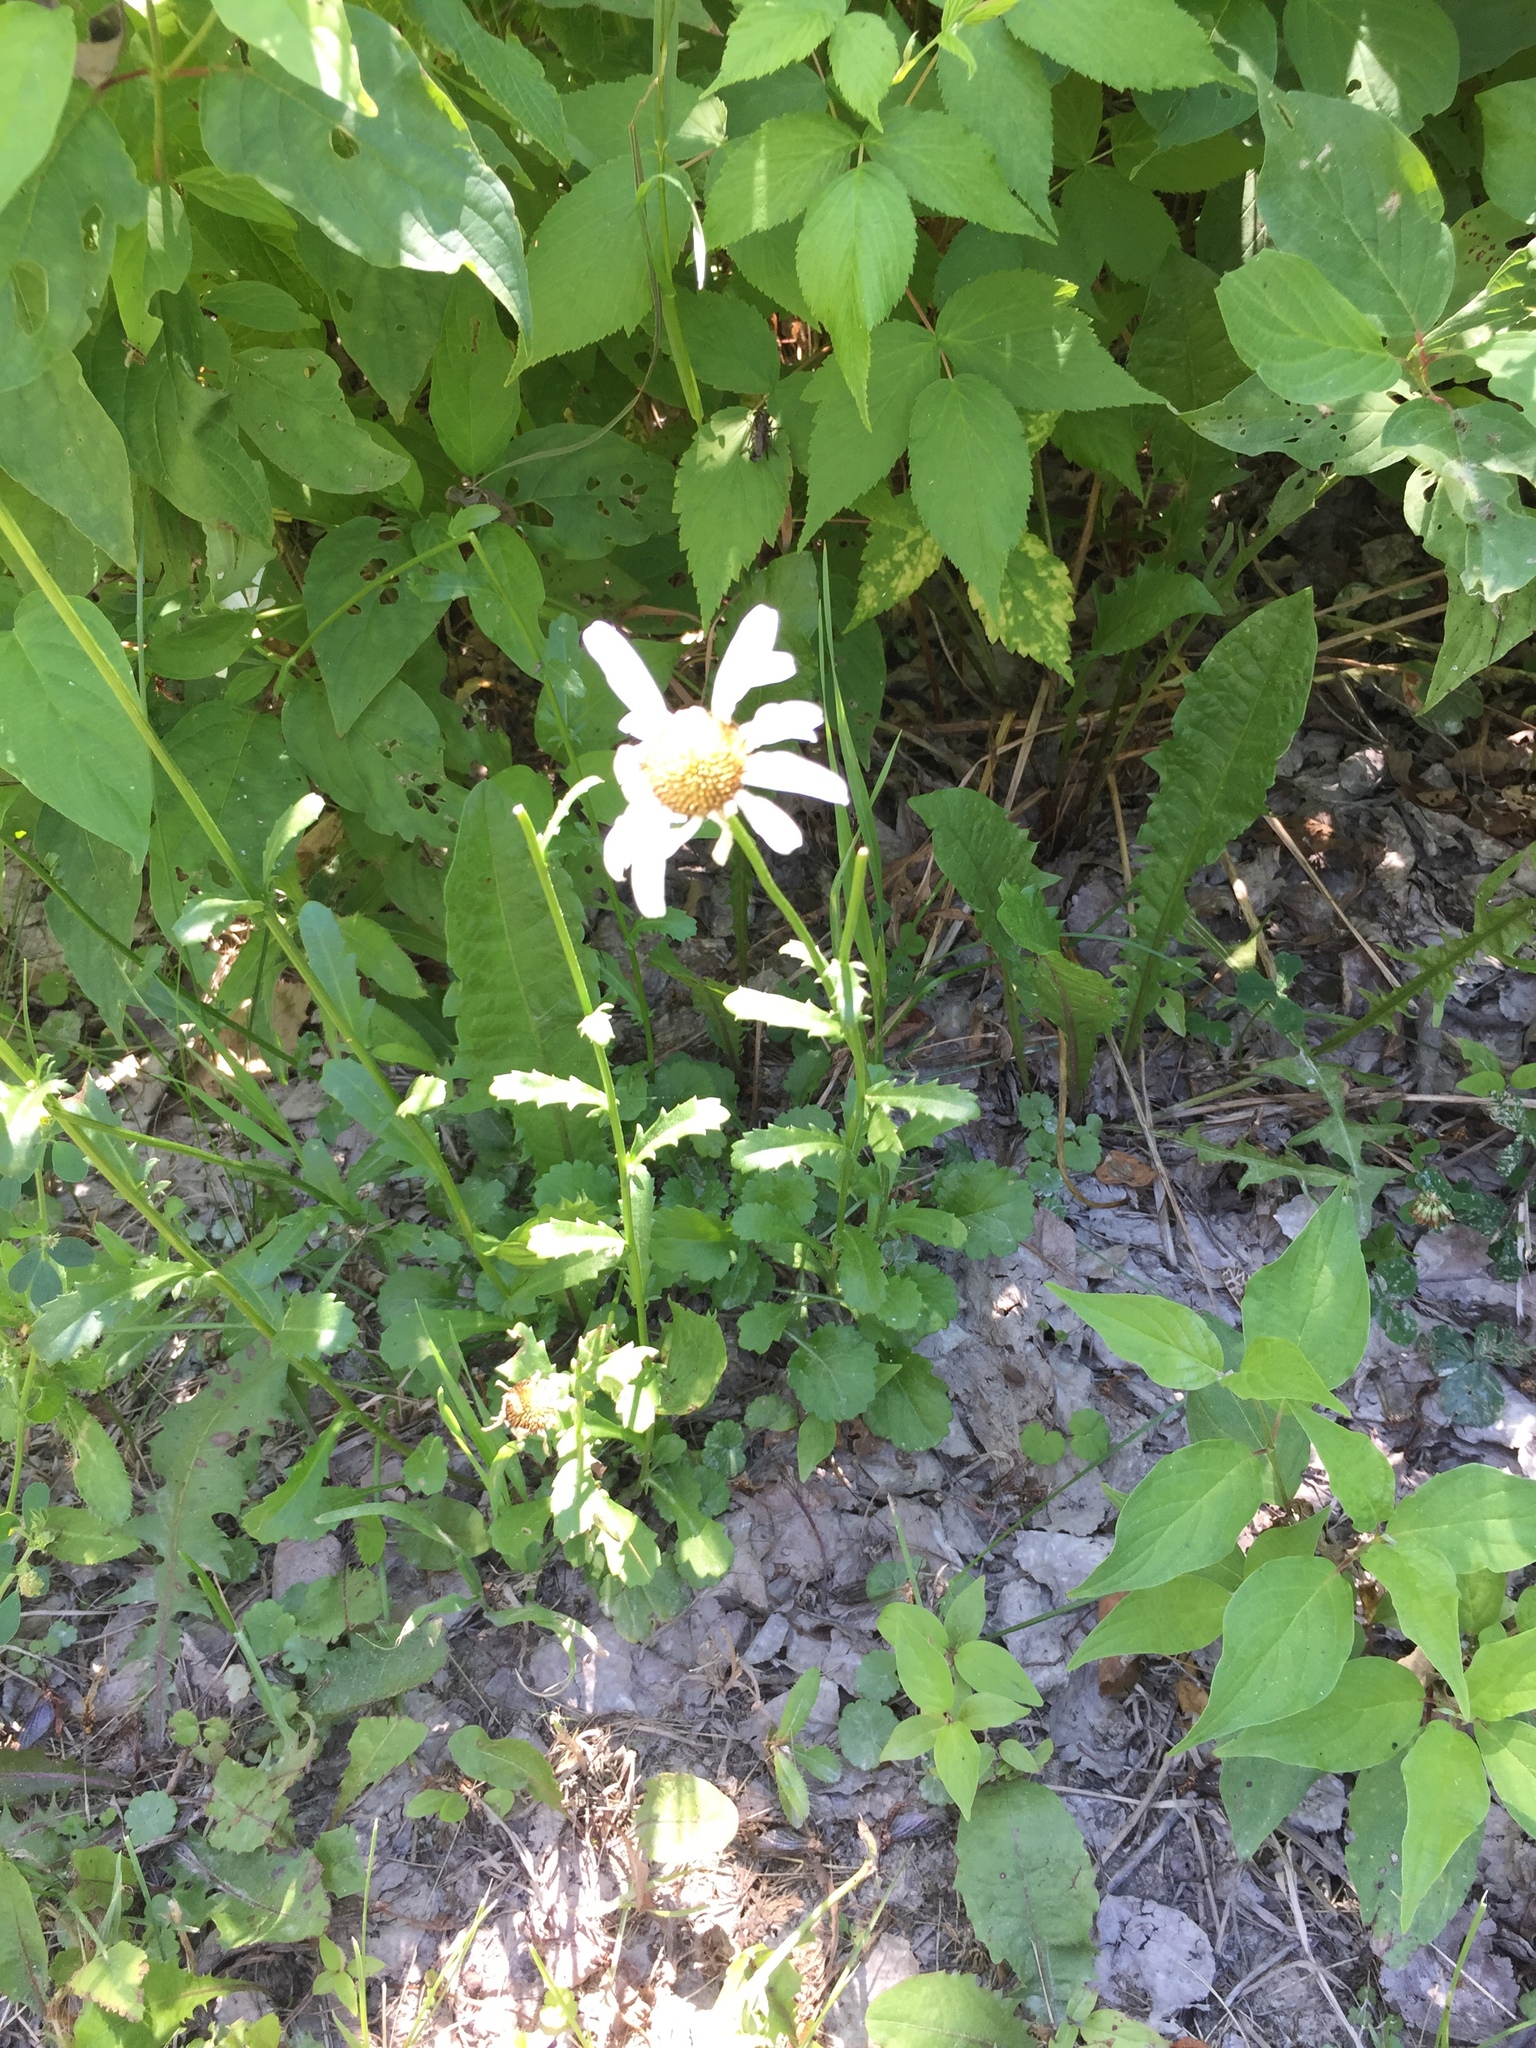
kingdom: Plantae
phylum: Tracheophyta
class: Magnoliopsida
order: Asterales
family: Asteraceae
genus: Leucanthemum
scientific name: Leucanthemum vulgare
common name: Oxeye daisy
